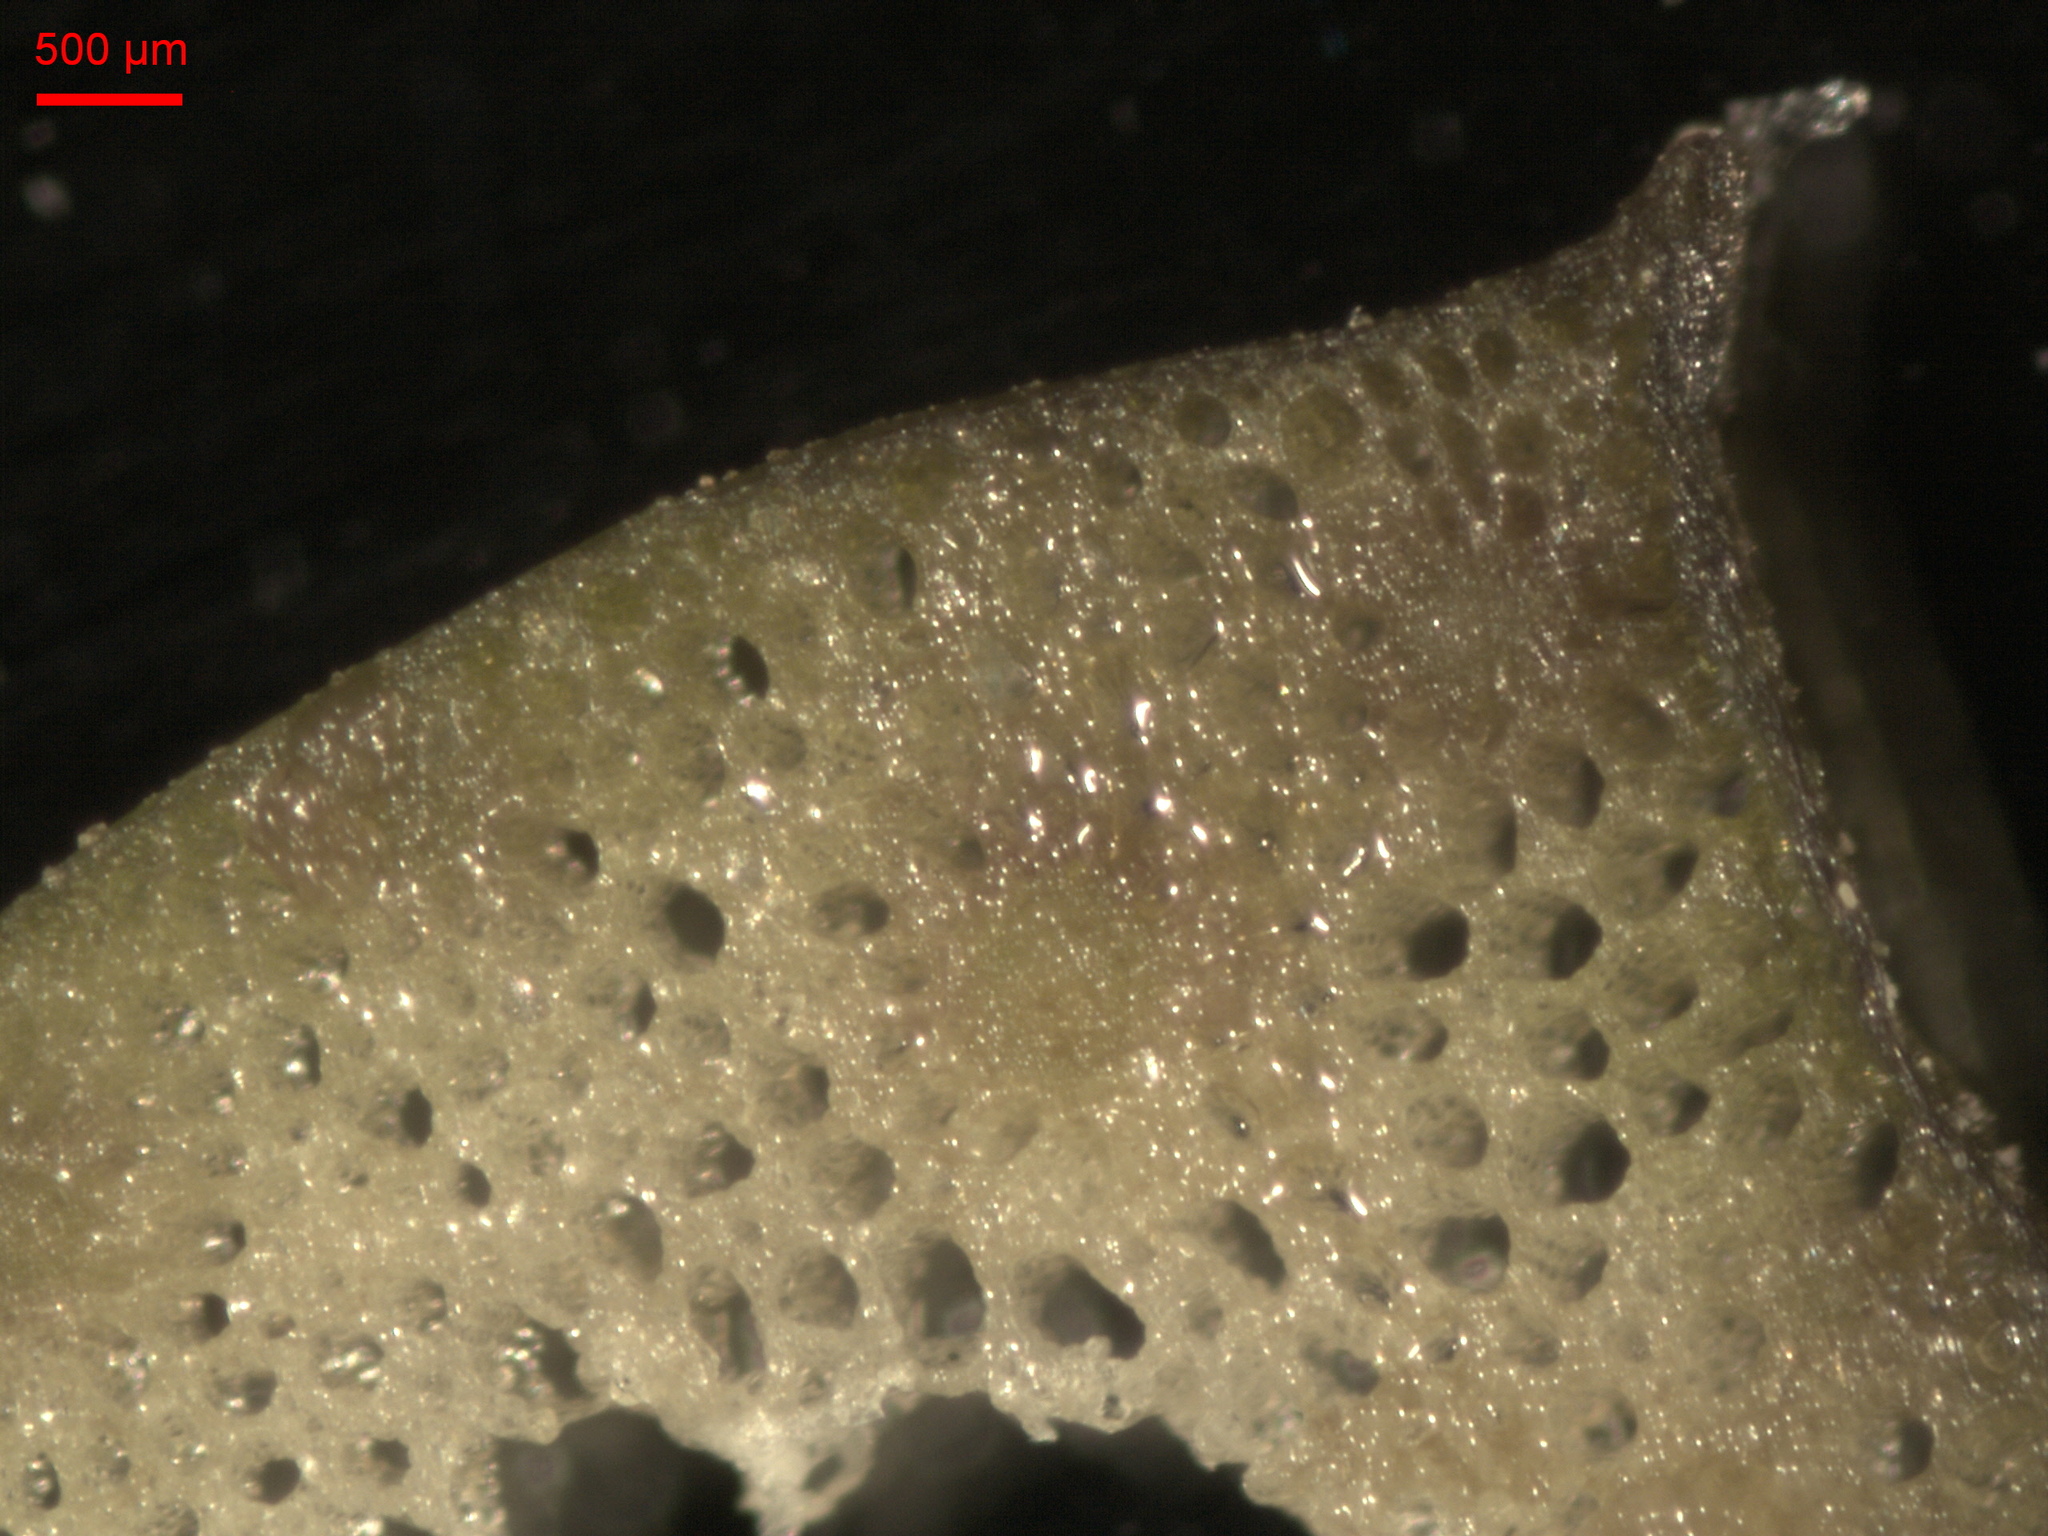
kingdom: Plantae
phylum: Tracheophyta
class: Magnoliopsida
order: Ranunculales
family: Ranunculaceae
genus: Caltha
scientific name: Caltha palustris
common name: Marsh marigold
